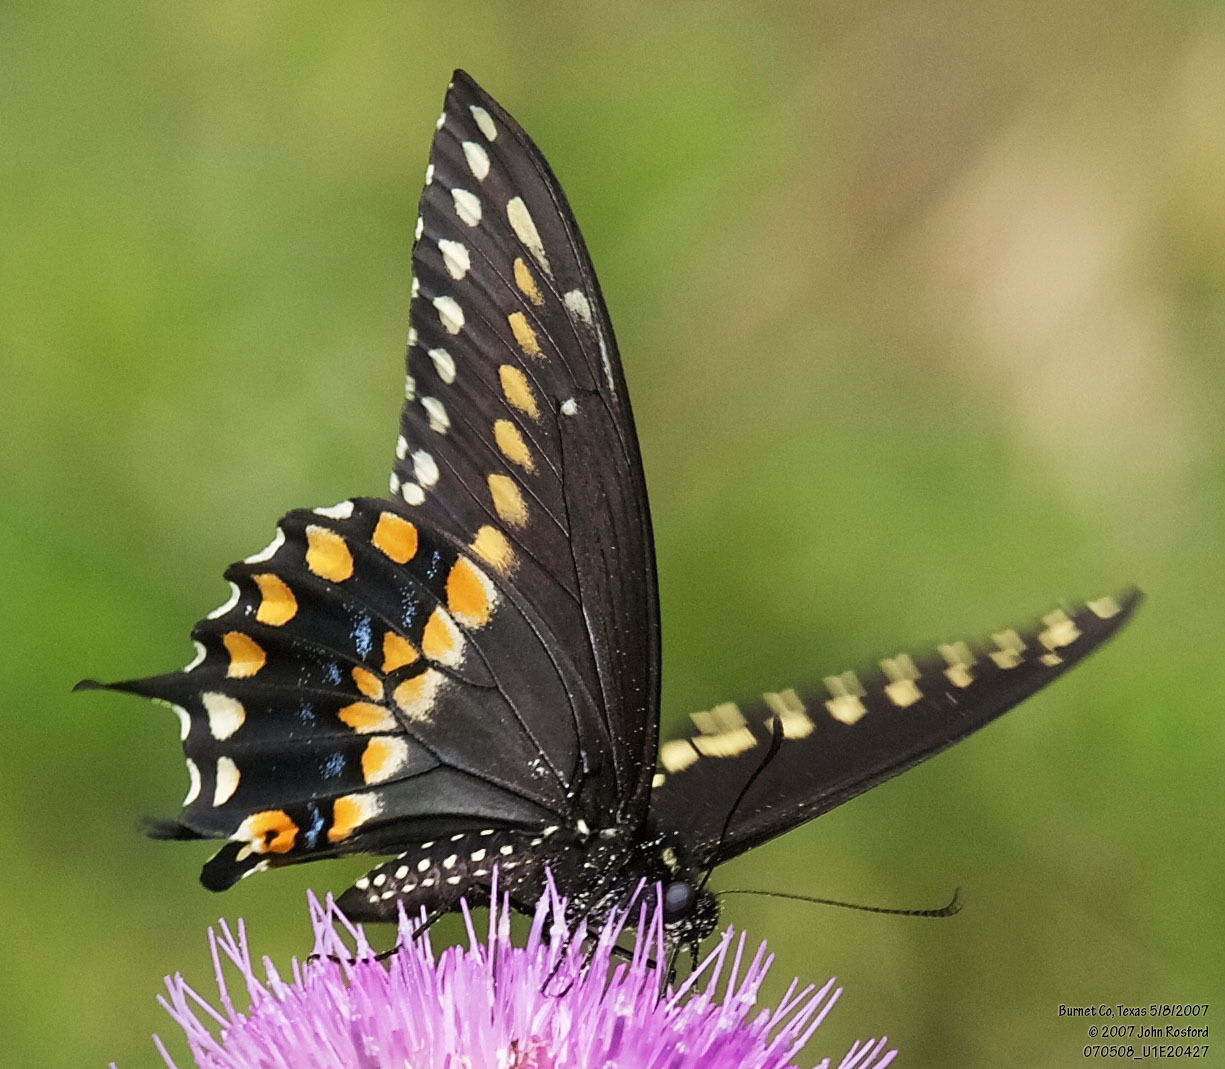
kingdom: Animalia
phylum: Arthropoda
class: Insecta
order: Lepidoptera
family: Papilionidae
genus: Papilio
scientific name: Papilio polyxenes
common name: Black swallowtail
